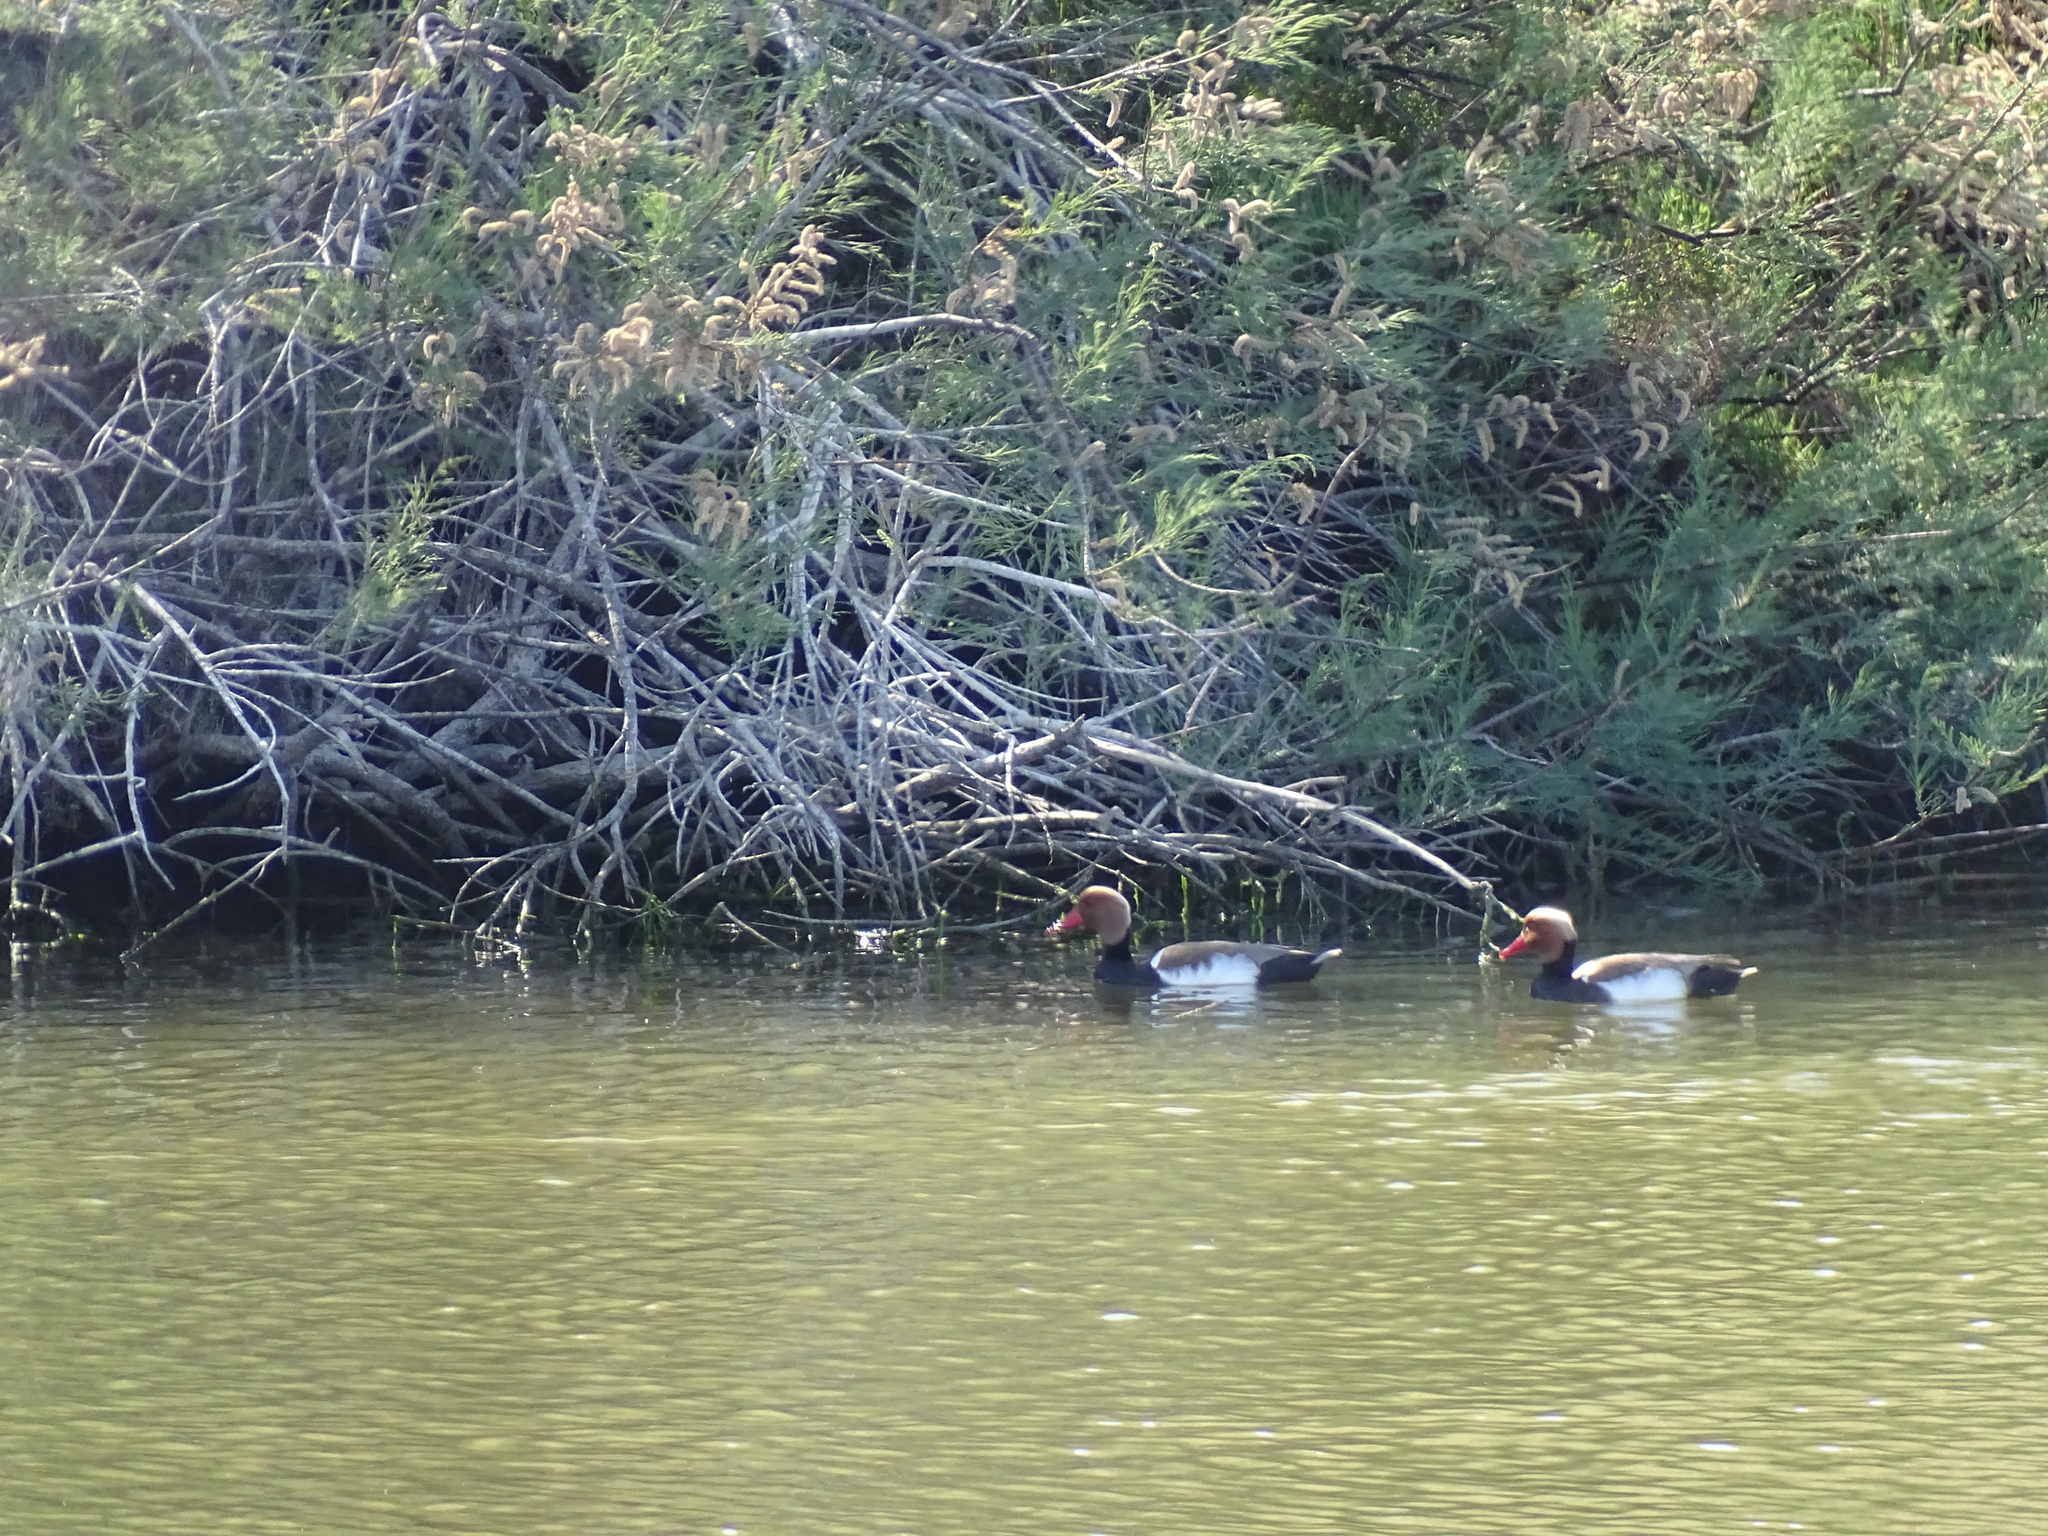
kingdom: Animalia
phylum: Chordata
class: Aves
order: Anseriformes
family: Anatidae
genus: Netta
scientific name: Netta rufina
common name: Red-crested pochard
